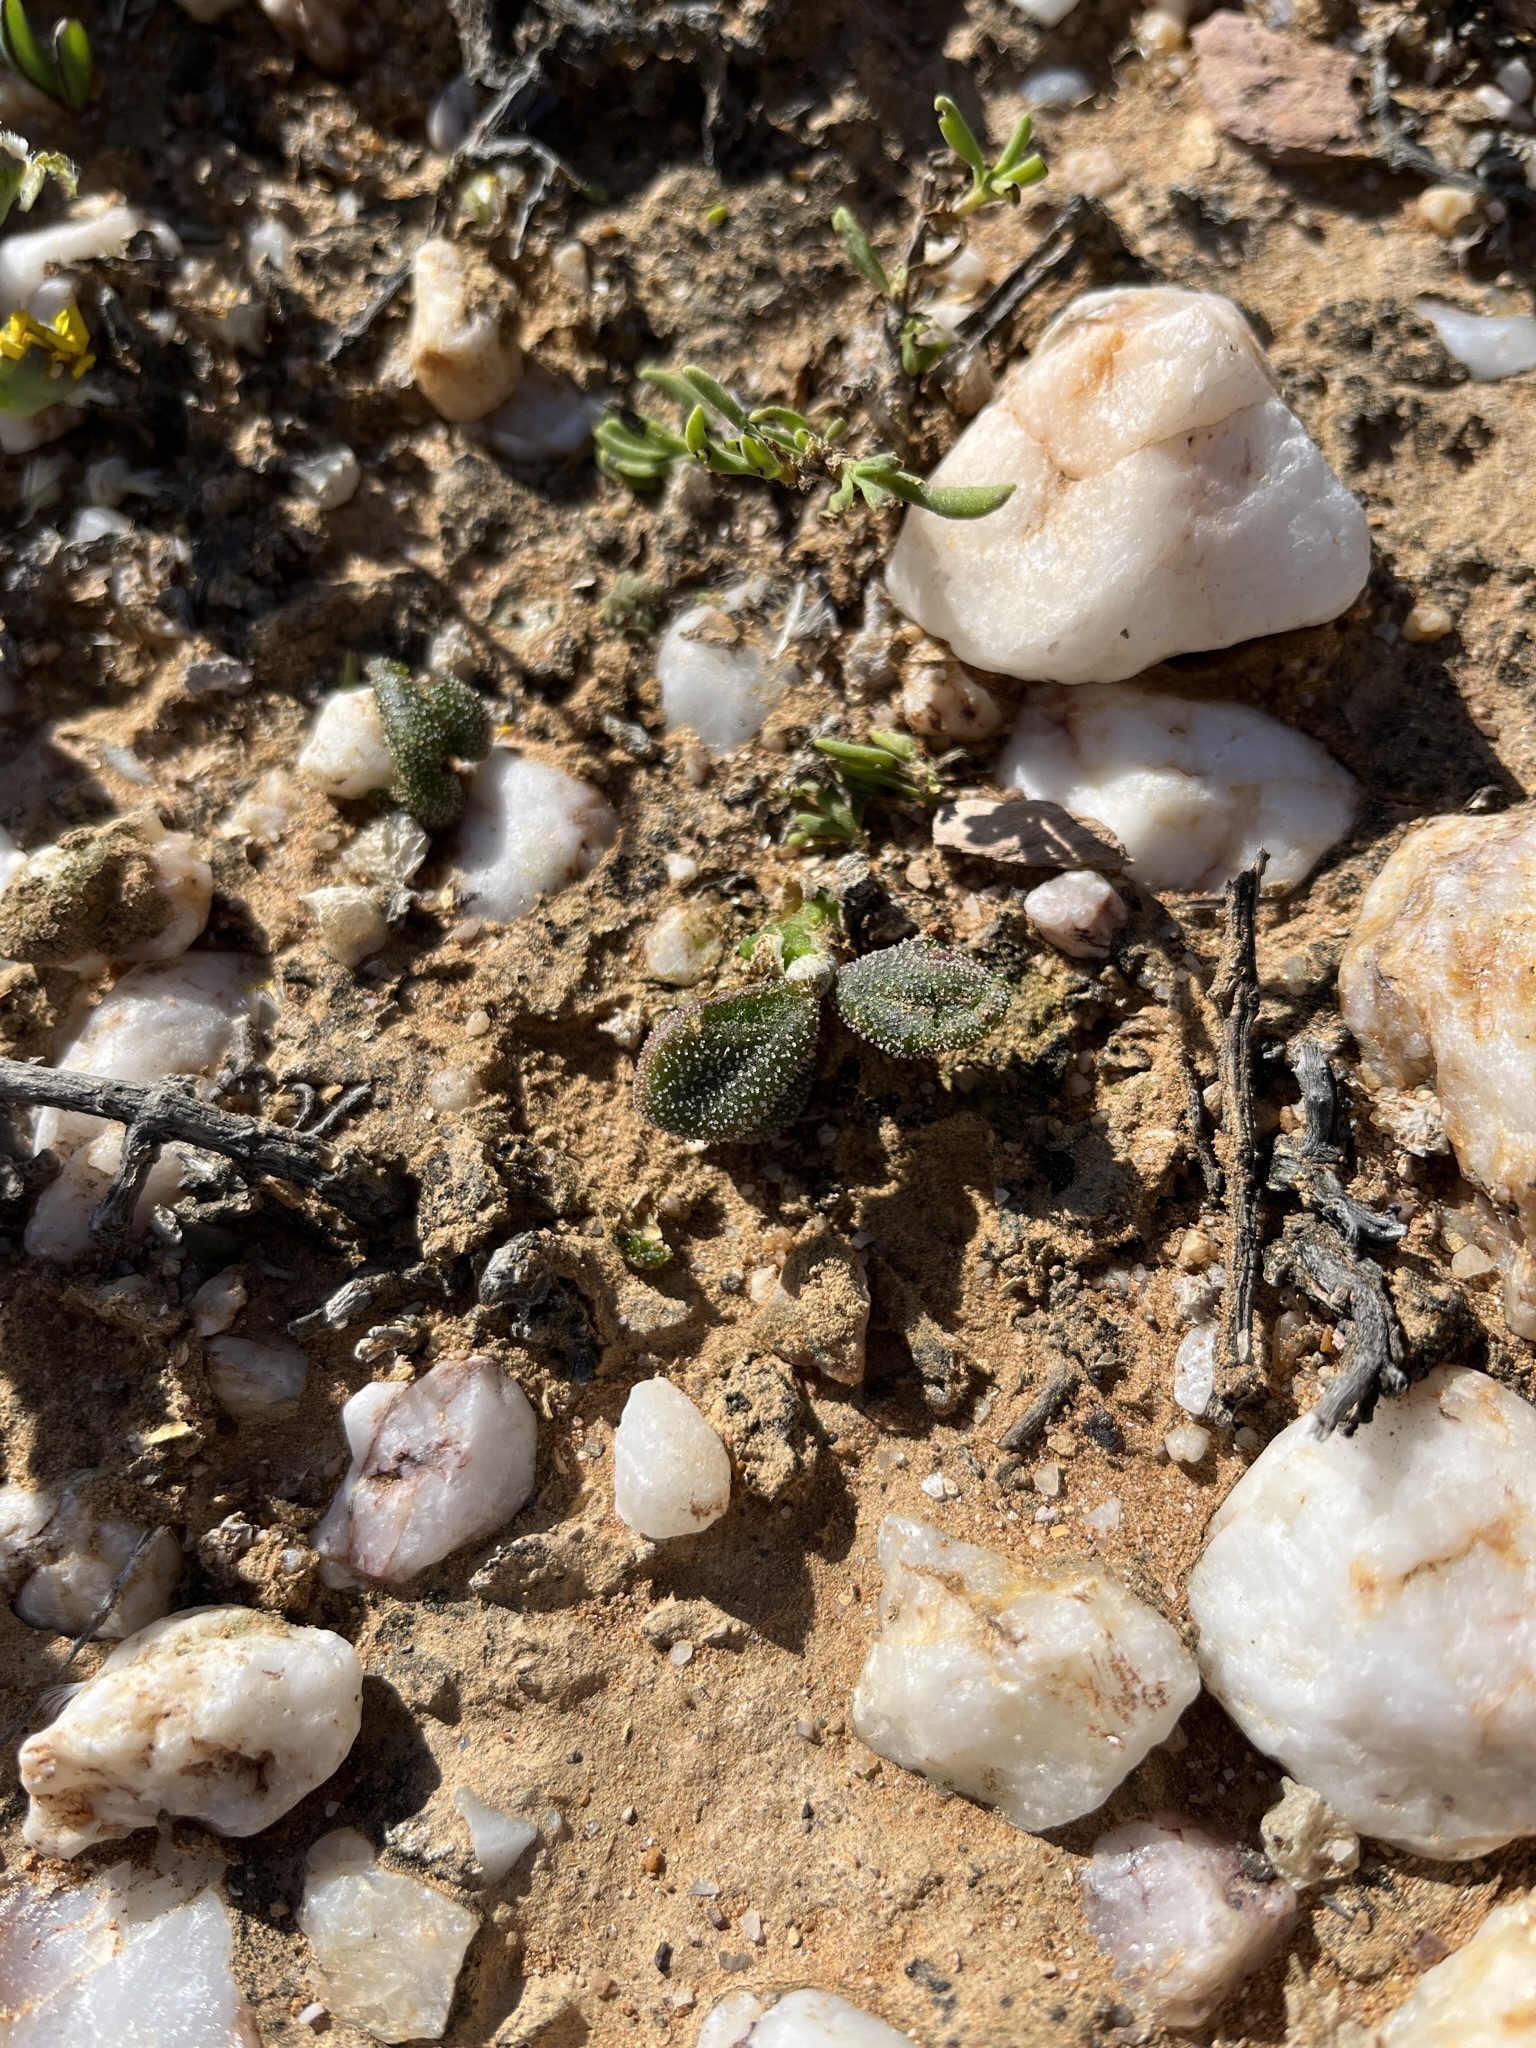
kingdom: Plantae
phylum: Tracheophyta
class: Magnoliopsida
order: Saxifragales
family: Crassulaceae
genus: Tylecodon
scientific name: Tylecodon pygmaeus
